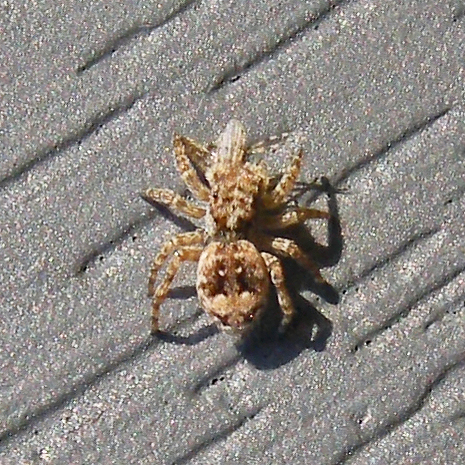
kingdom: Animalia
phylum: Arthropoda
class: Arachnida
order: Araneae
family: Salticidae
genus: Attulus
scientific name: Attulus fasciger
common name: Asiatic wall jumping spider
